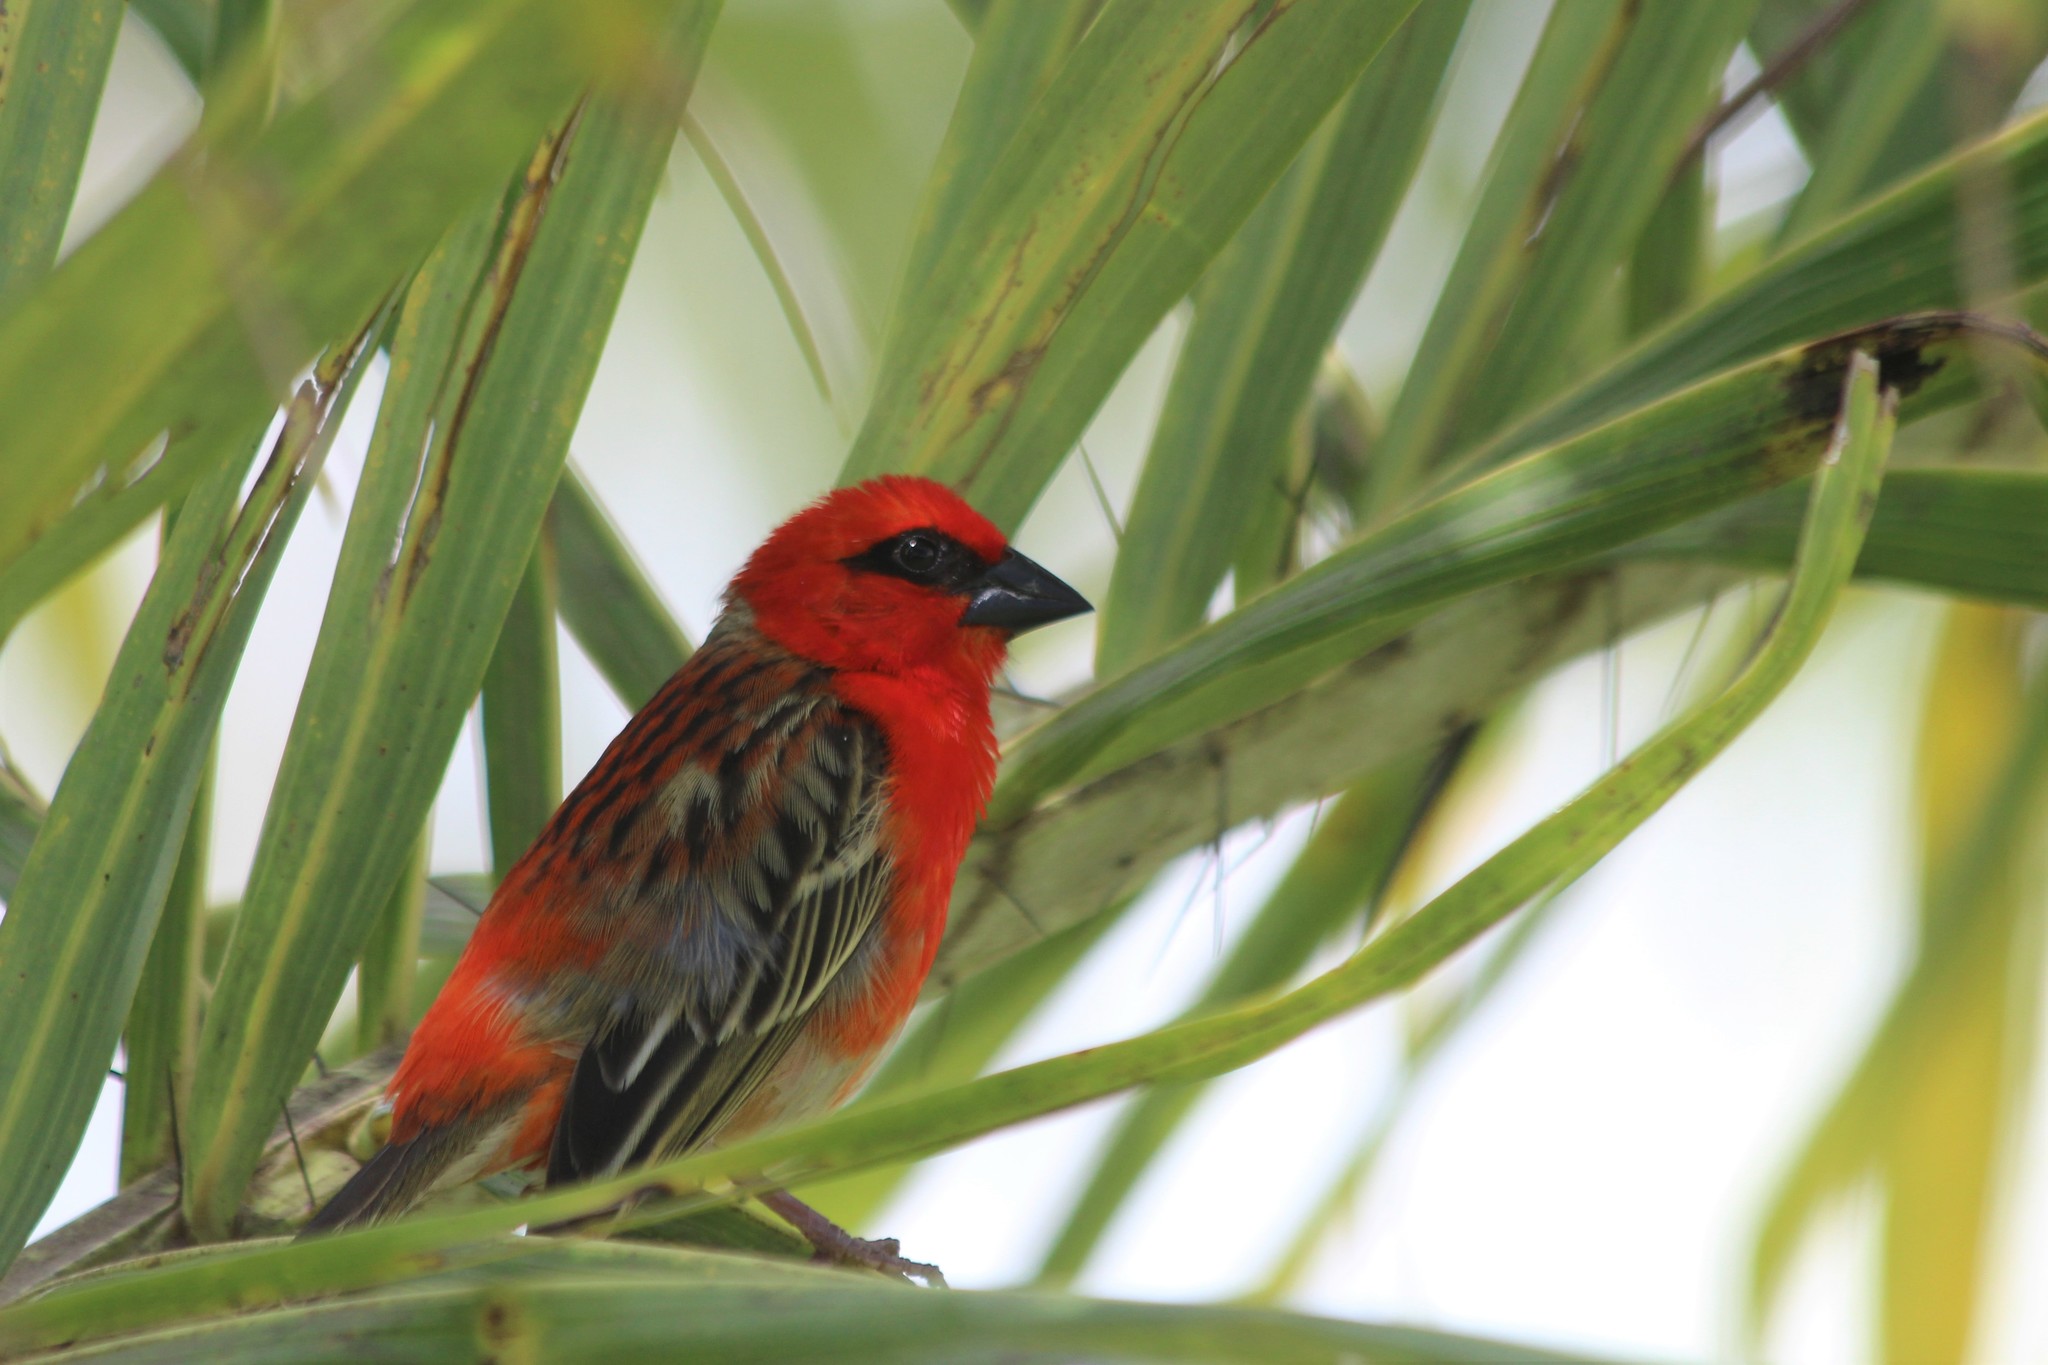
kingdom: Animalia
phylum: Chordata
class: Aves
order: Passeriformes
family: Ploceidae
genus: Foudia
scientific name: Foudia madagascariensis
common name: Red fody
